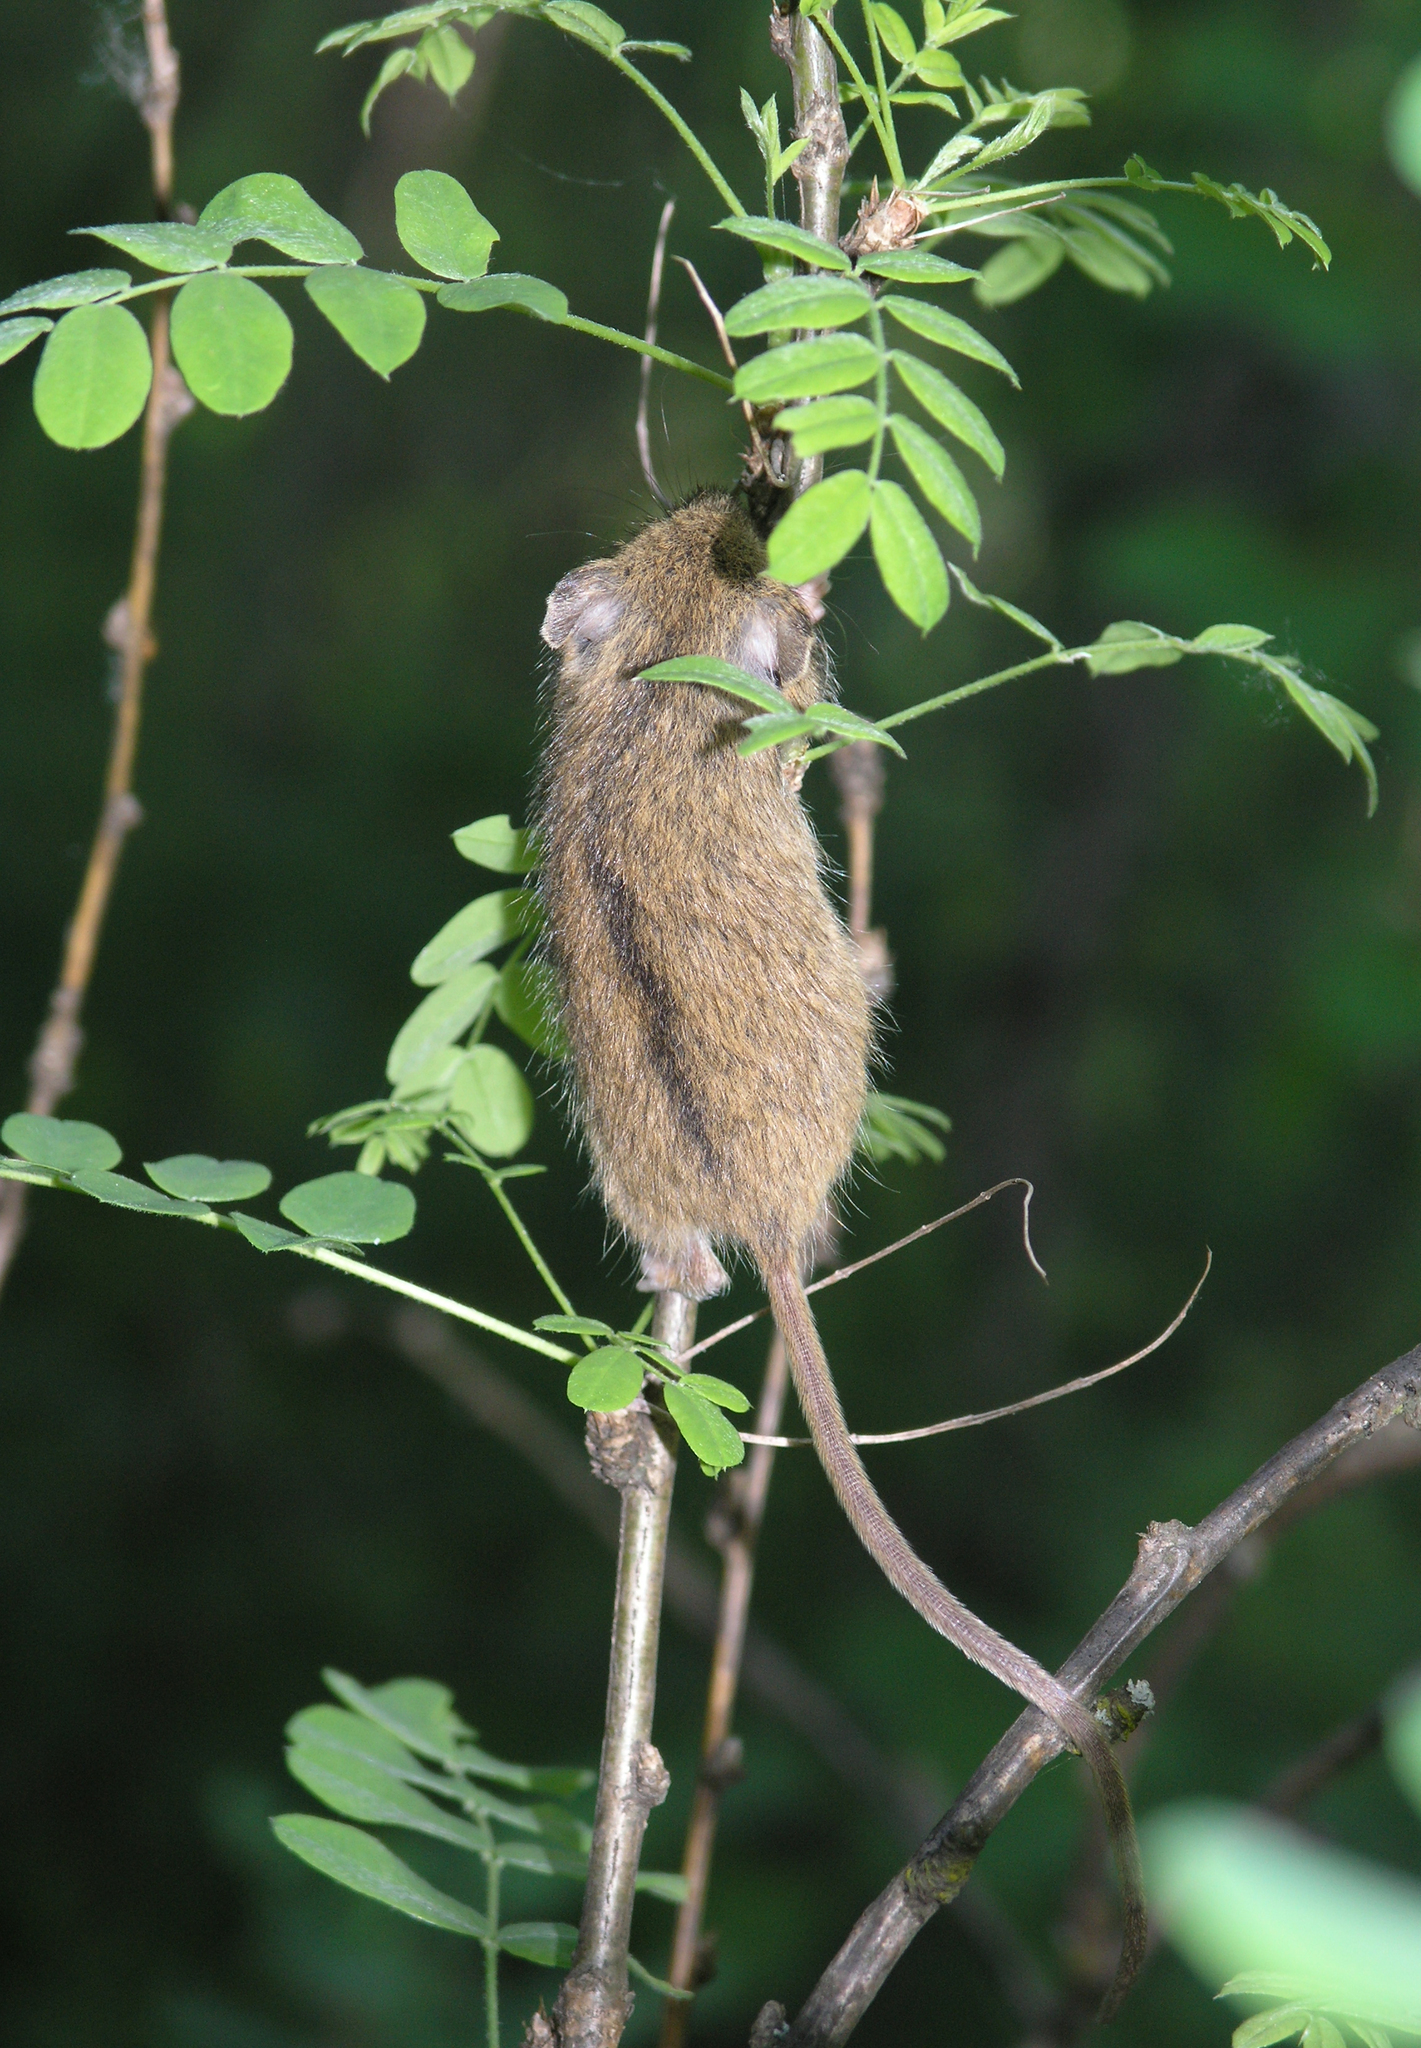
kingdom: Plantae
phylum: Tracheophyta
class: Magnoliopsida
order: Fabales
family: Fabaceae
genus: Caragana
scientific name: Caragana arborescens
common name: Siberian peashrub
